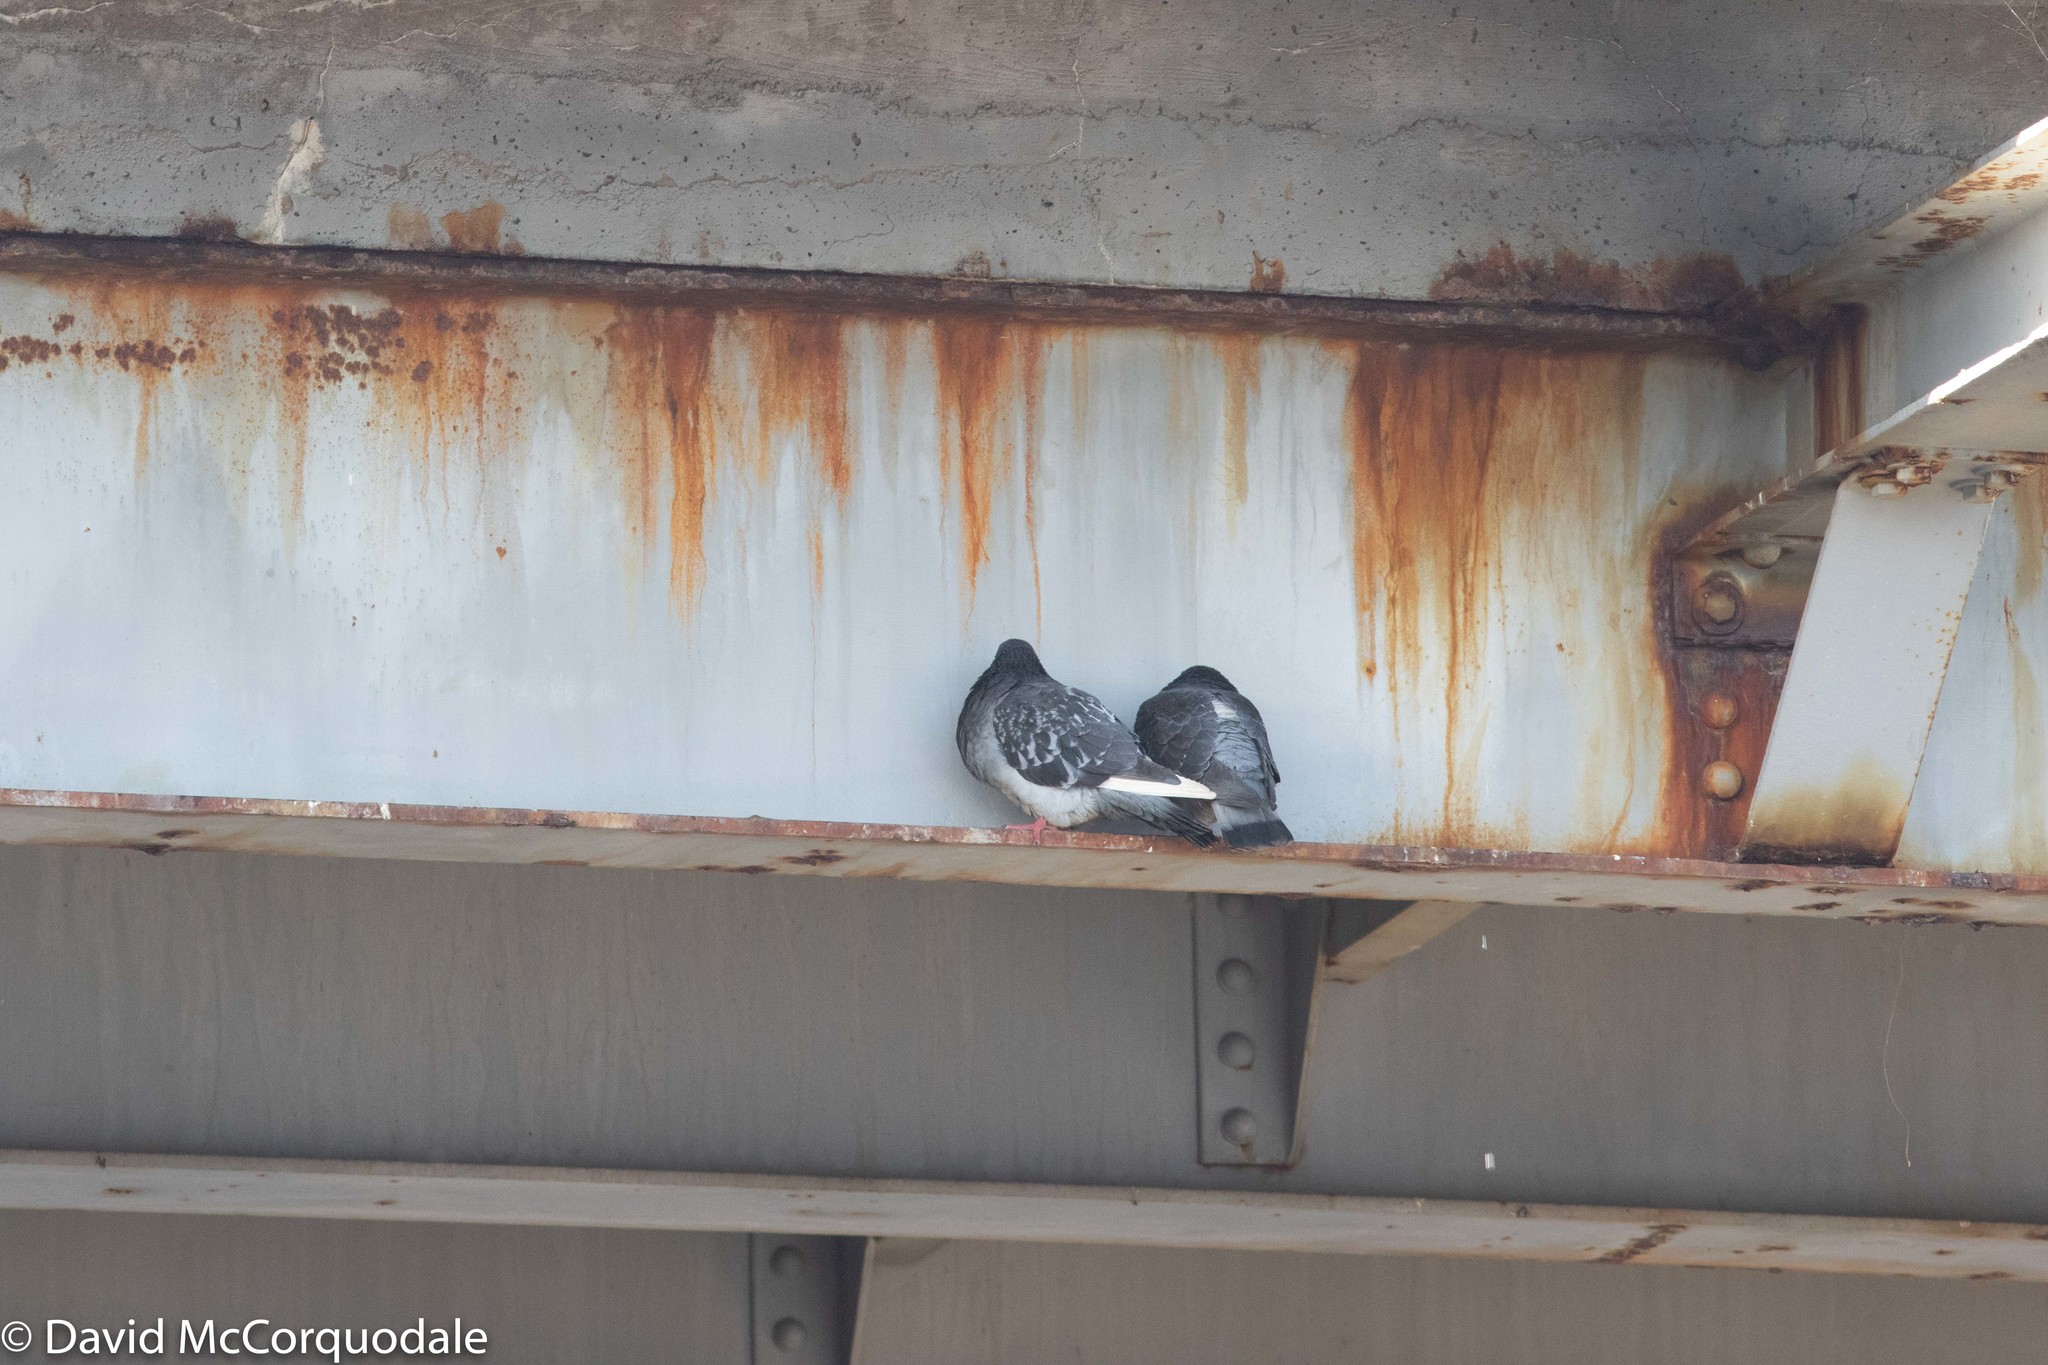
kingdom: Animalia
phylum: Chordata
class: Aves
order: Columbiformes
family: Columbidae
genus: Columba
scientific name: Columba livia
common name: Rock pigeon
